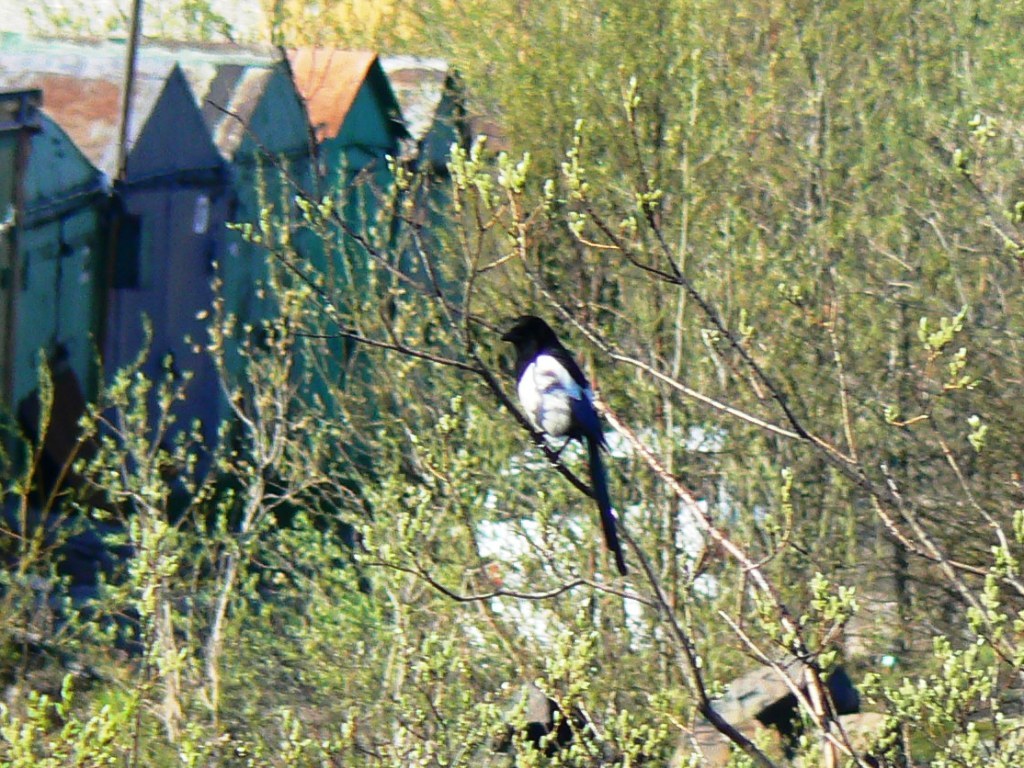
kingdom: Animalia
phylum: Chordata
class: Aves
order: Passeriformes
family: Corvidae
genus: Pica
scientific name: Pica pica
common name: Eurasian magpie
